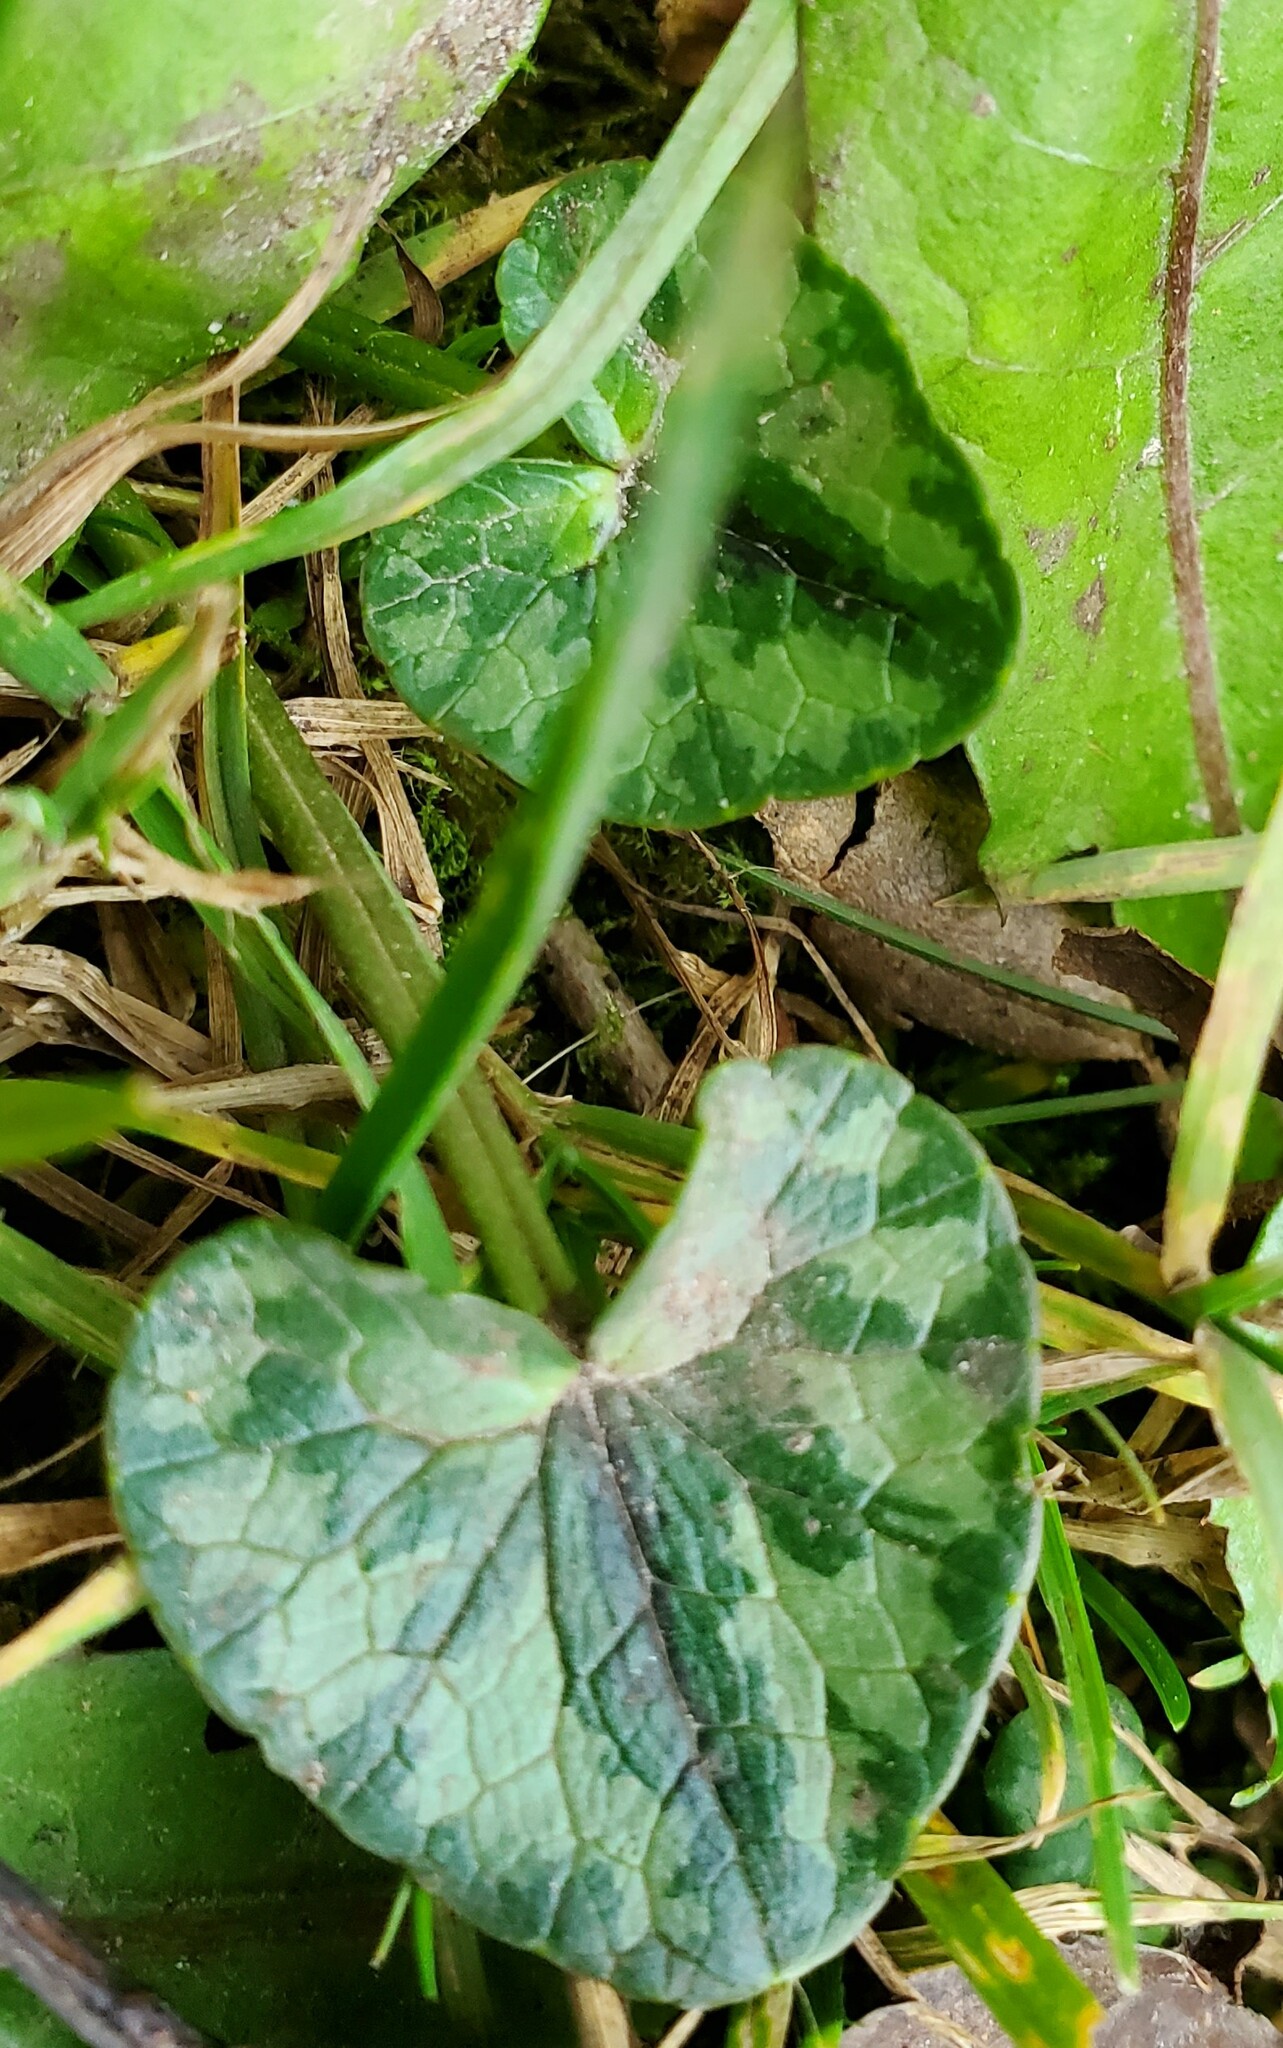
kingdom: Plantae
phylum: Tracheophyta
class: Magnoliopsida
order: Ranunculales
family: Ranunculaceae
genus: Ficaria
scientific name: Ficaria verna
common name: Lesser celandine
